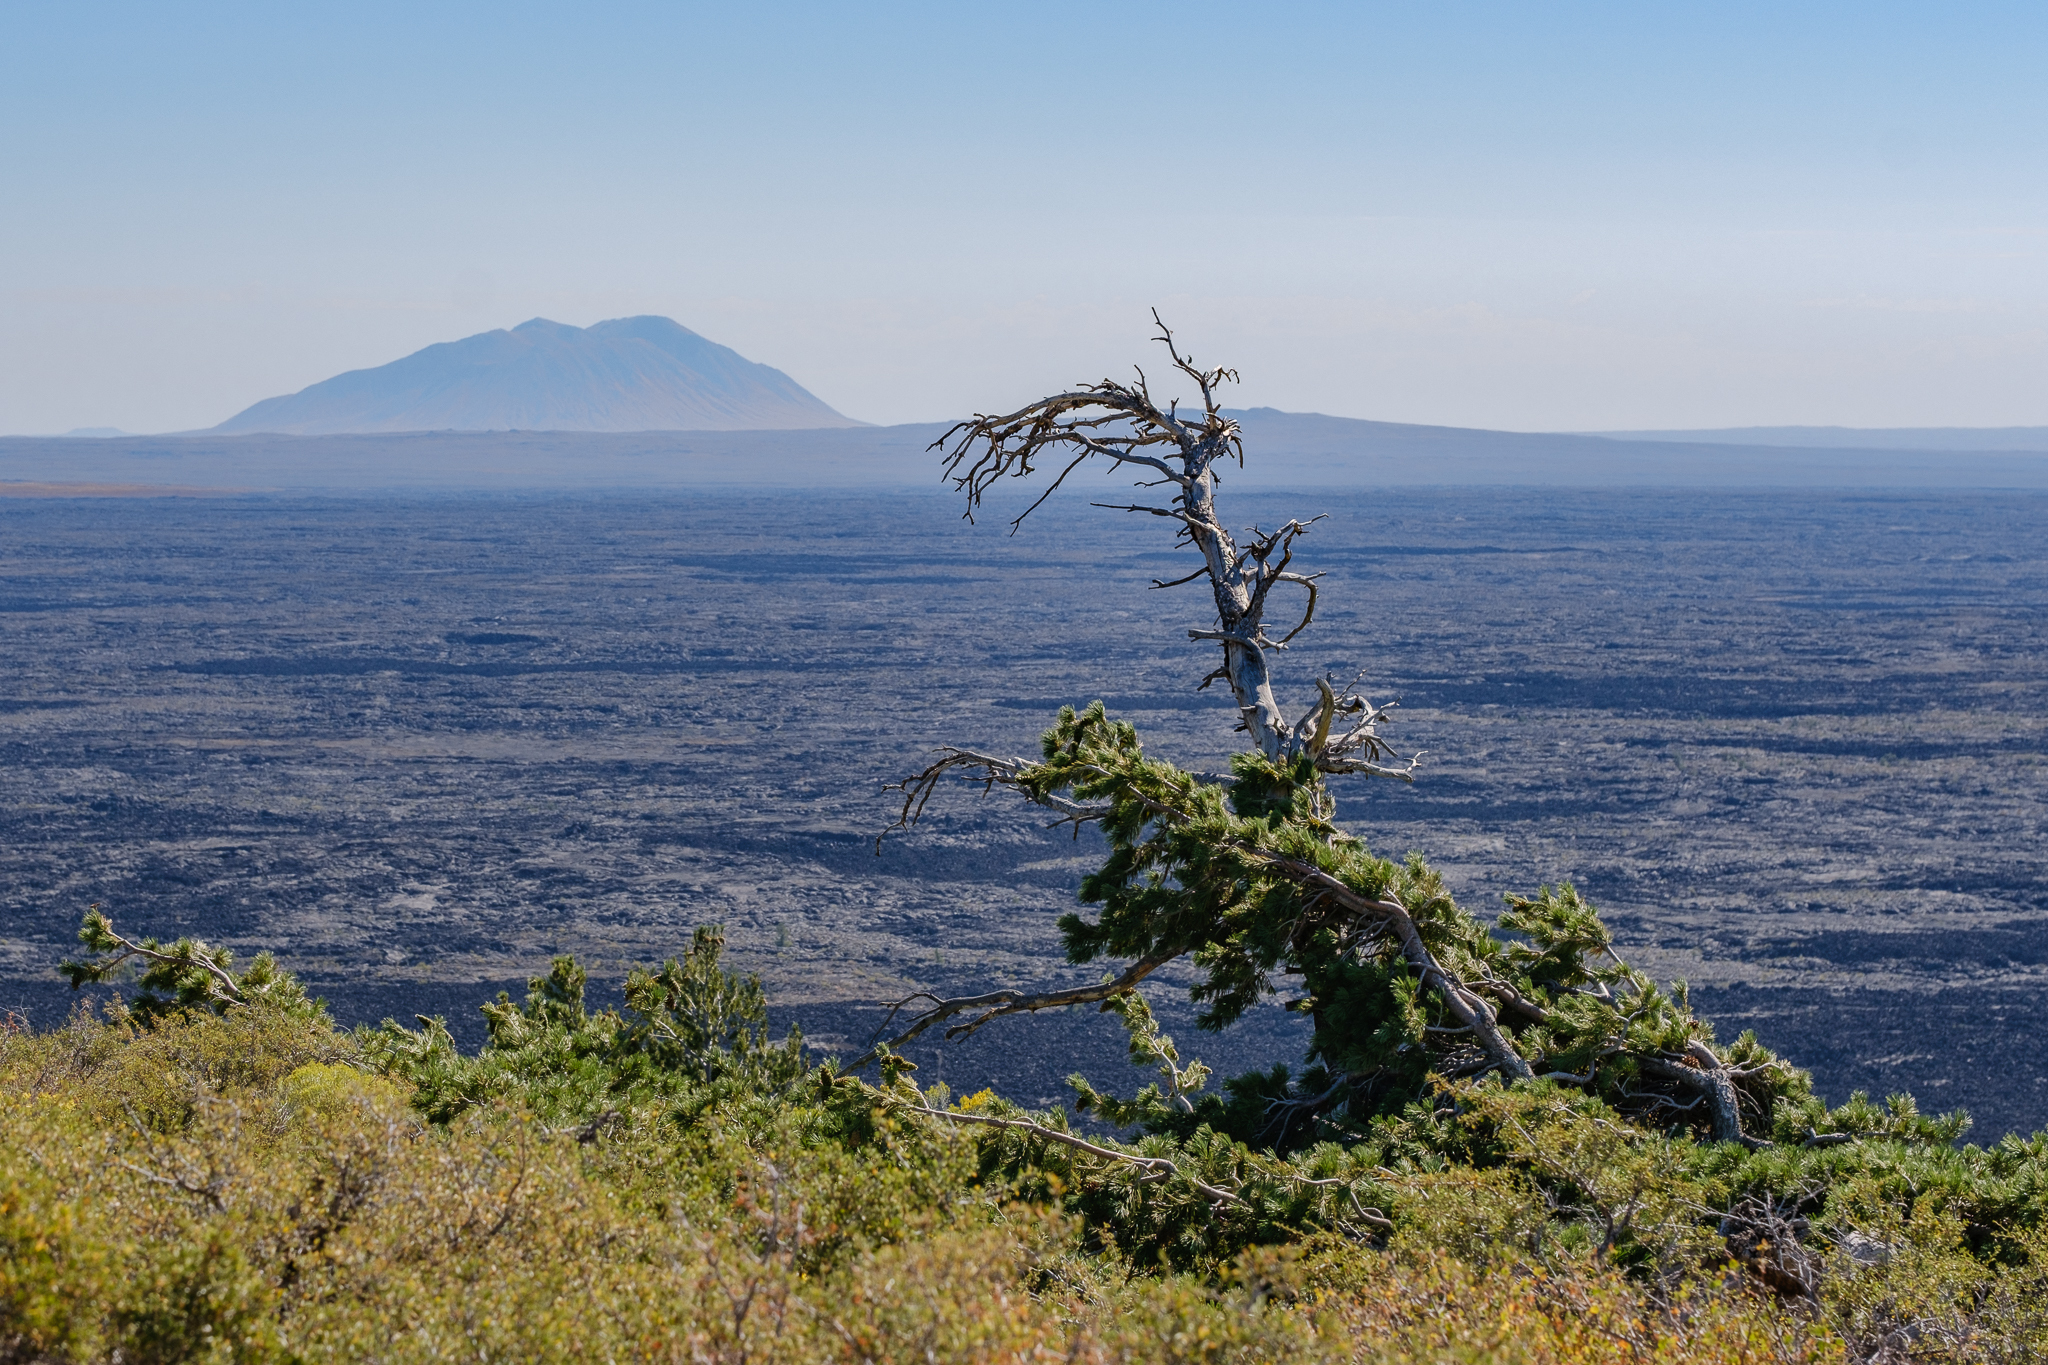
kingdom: Plantae
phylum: Tracheophyta
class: Pinopsida
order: Pinales
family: Pinaceae
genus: Pinus
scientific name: Pinus flexilis
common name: Limber pine
